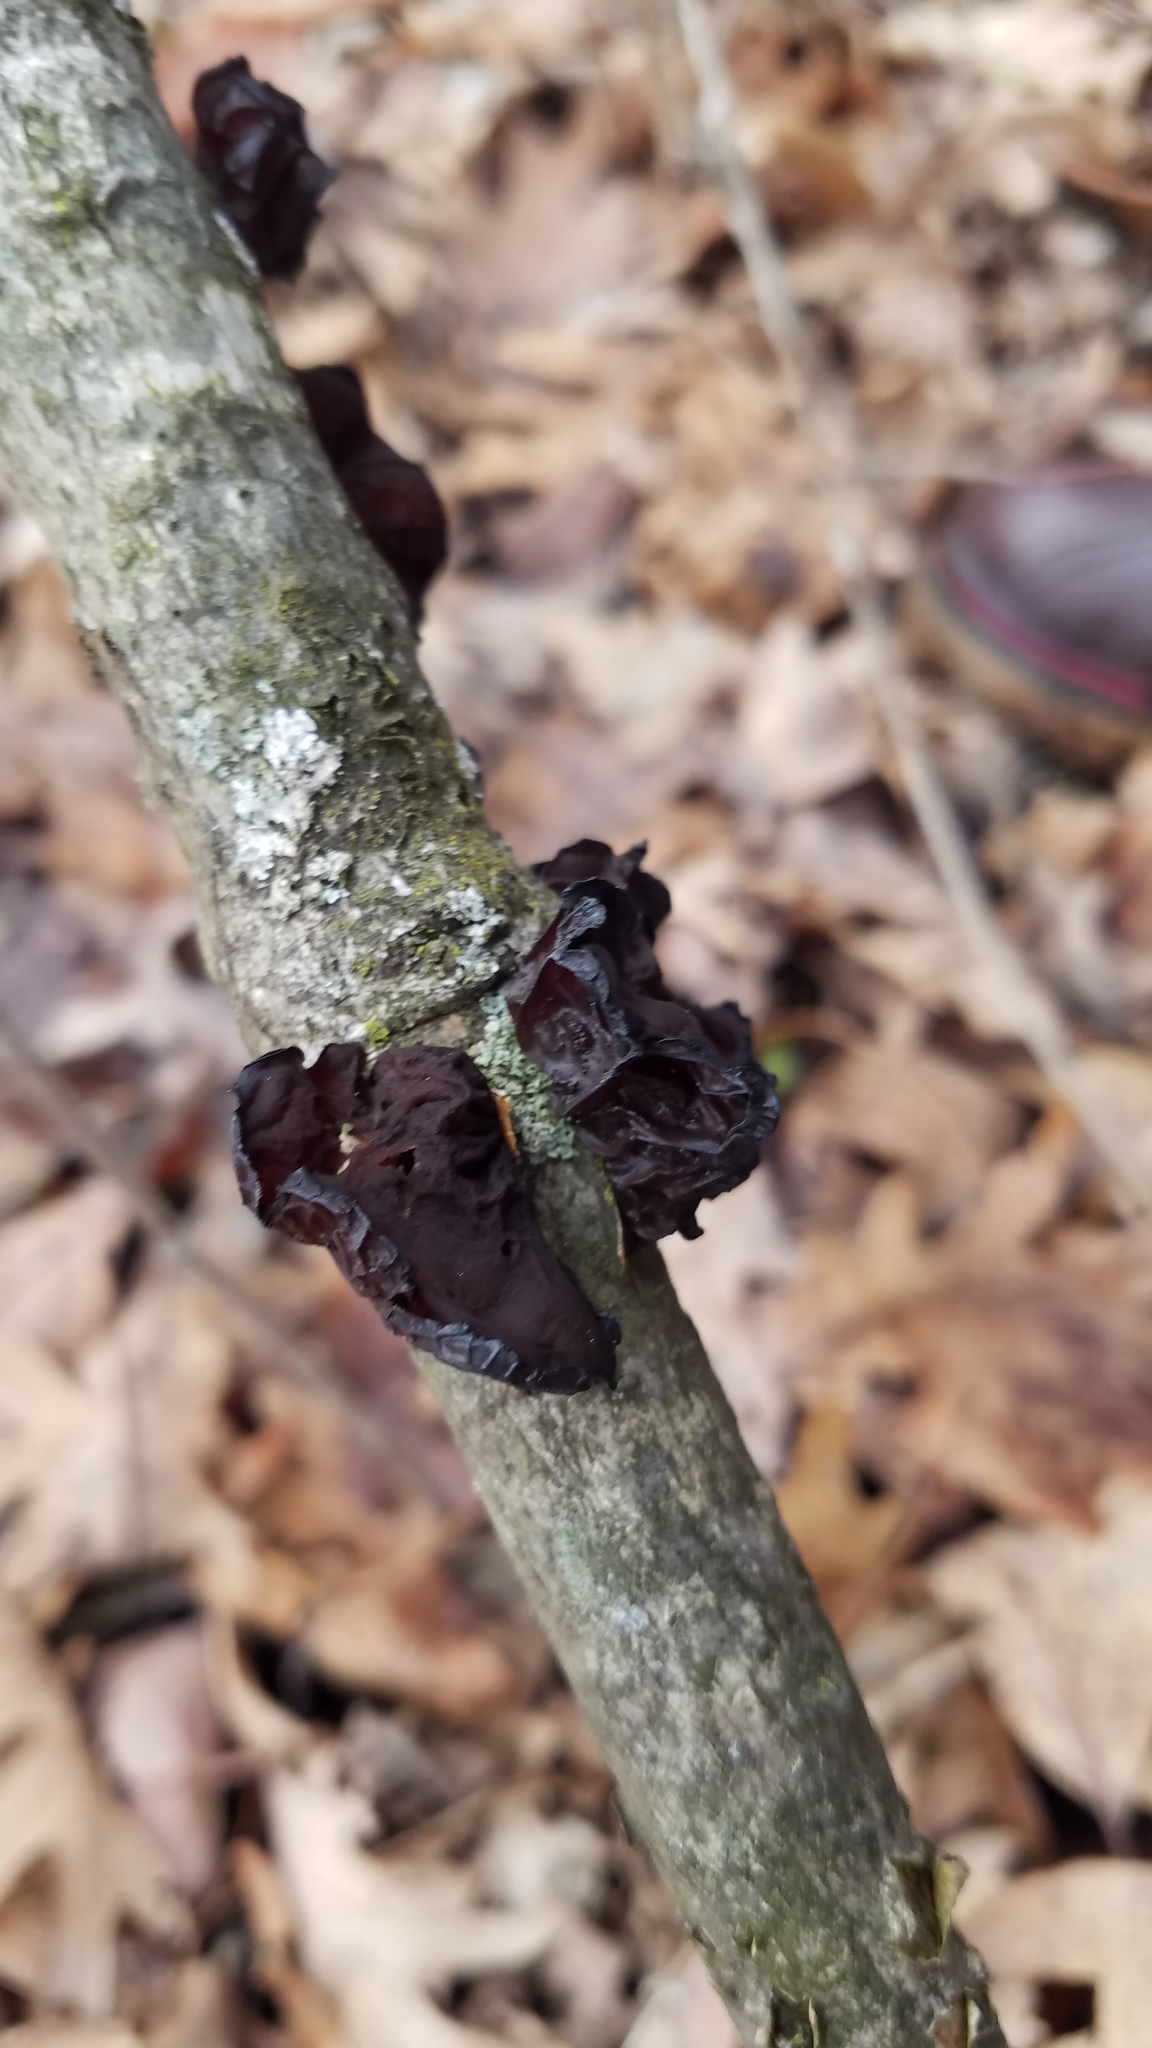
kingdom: Fungi
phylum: Basidiomycota
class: Agaricomycetes
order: Auriculariales
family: Auriculariaceae
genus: Exidia
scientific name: Exidia
